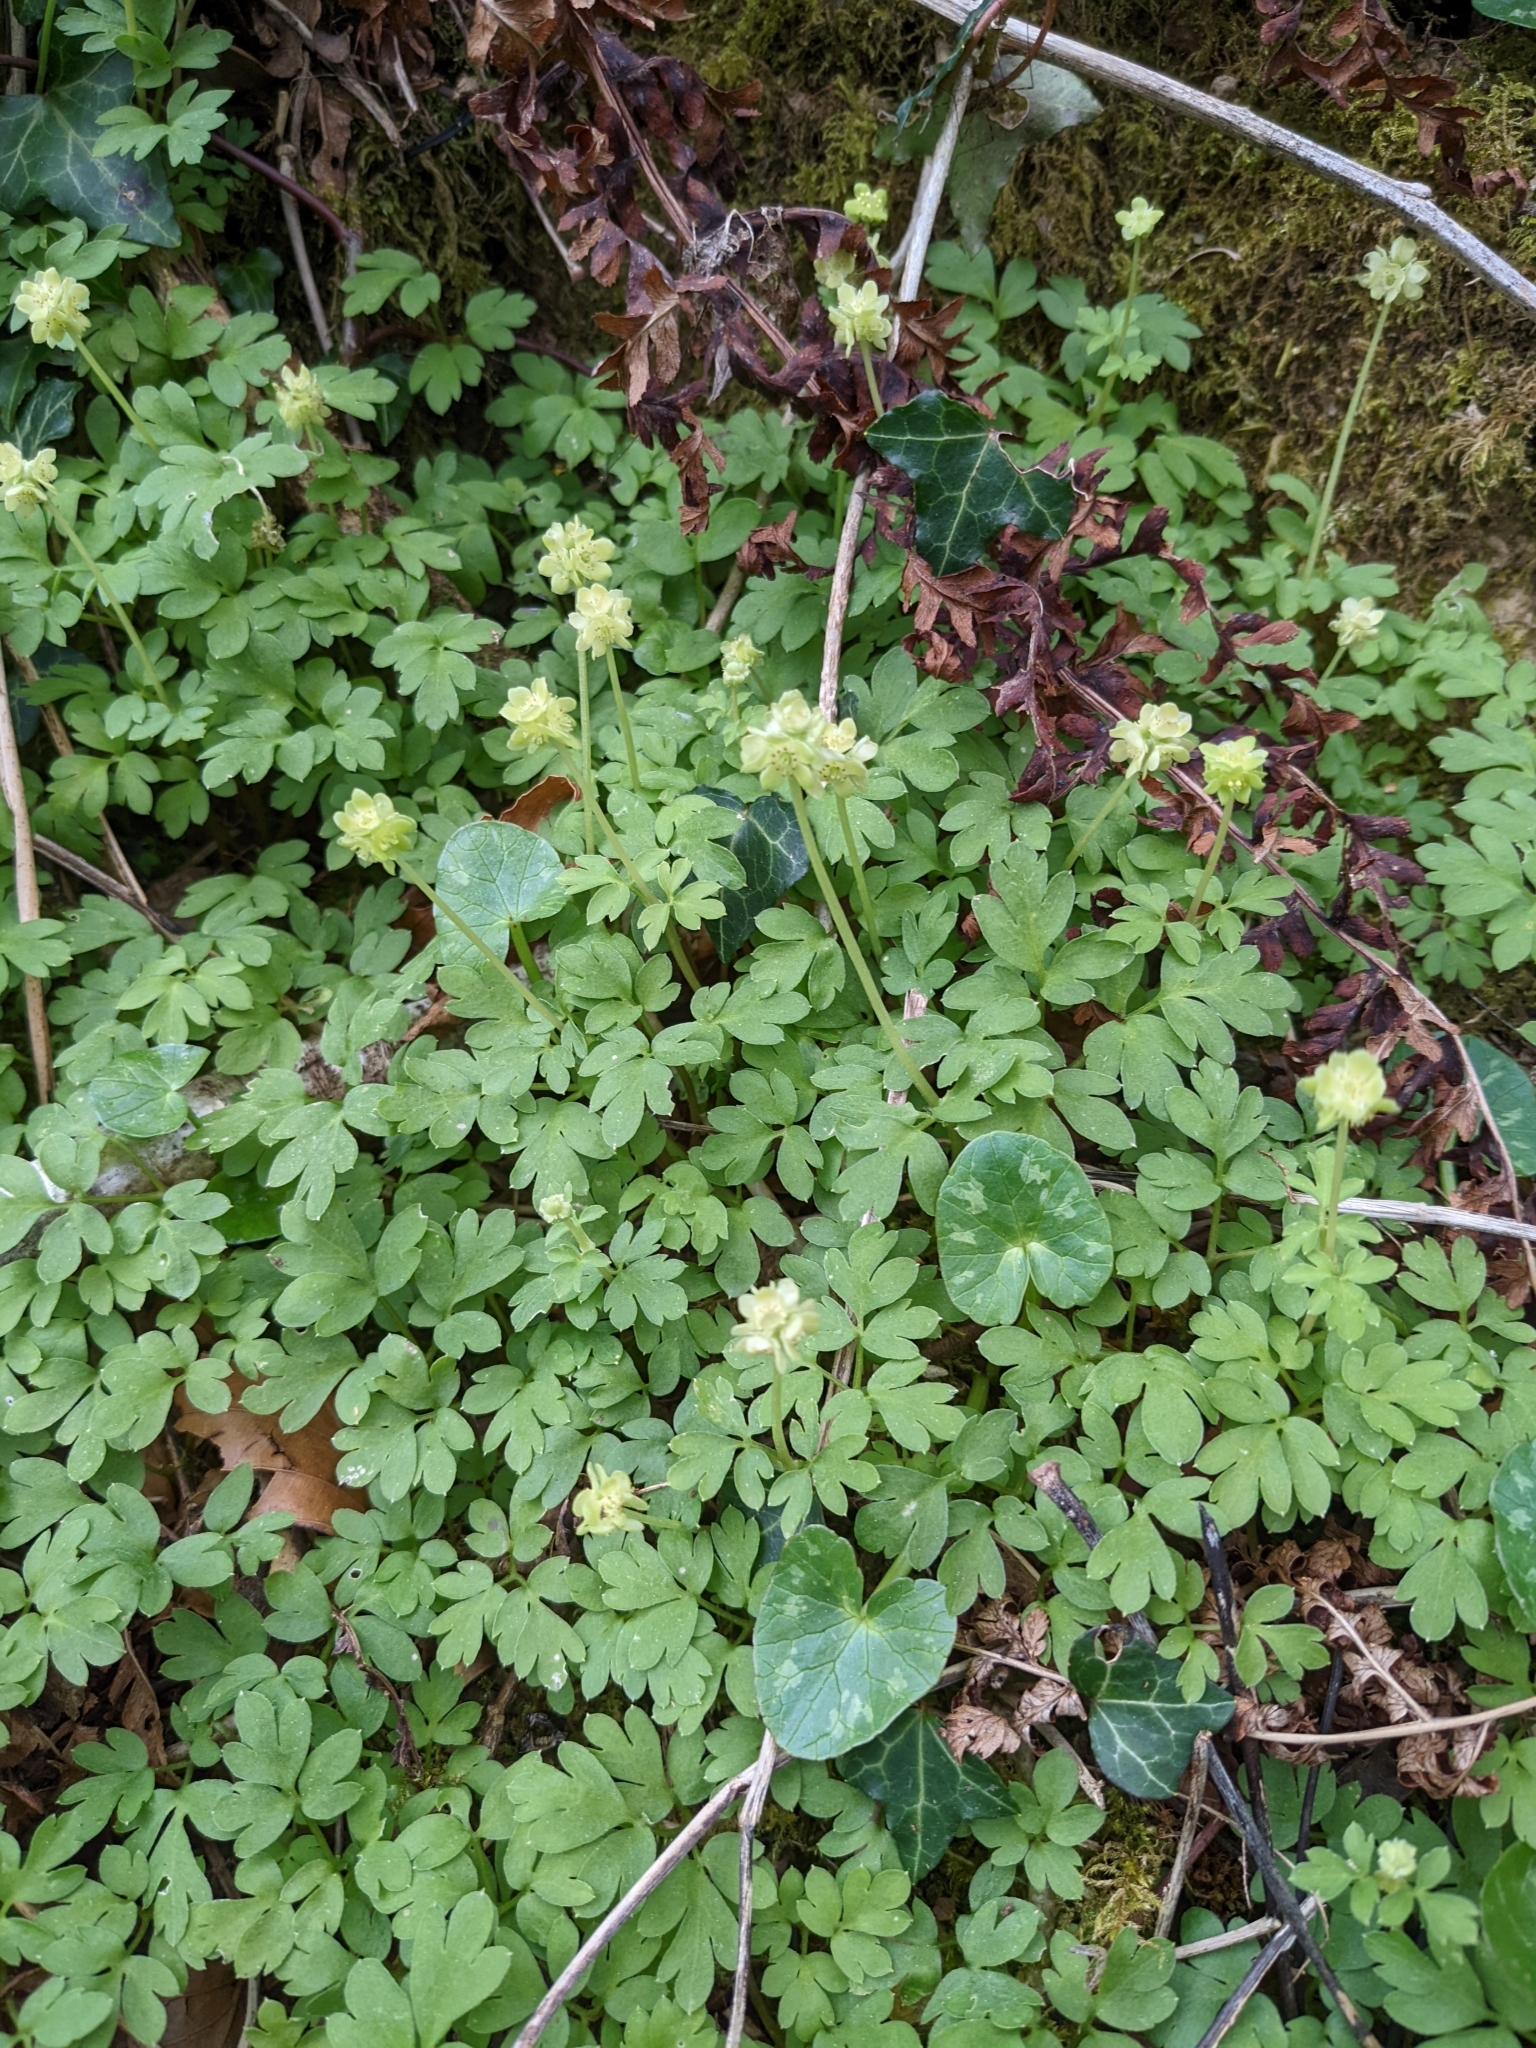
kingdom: Plantae
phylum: Tracheophyta
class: Magnoliopsida
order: Dipsacales
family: Viburnaceae
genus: Adoxa
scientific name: Adoxa moschatellina
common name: Moschatel
